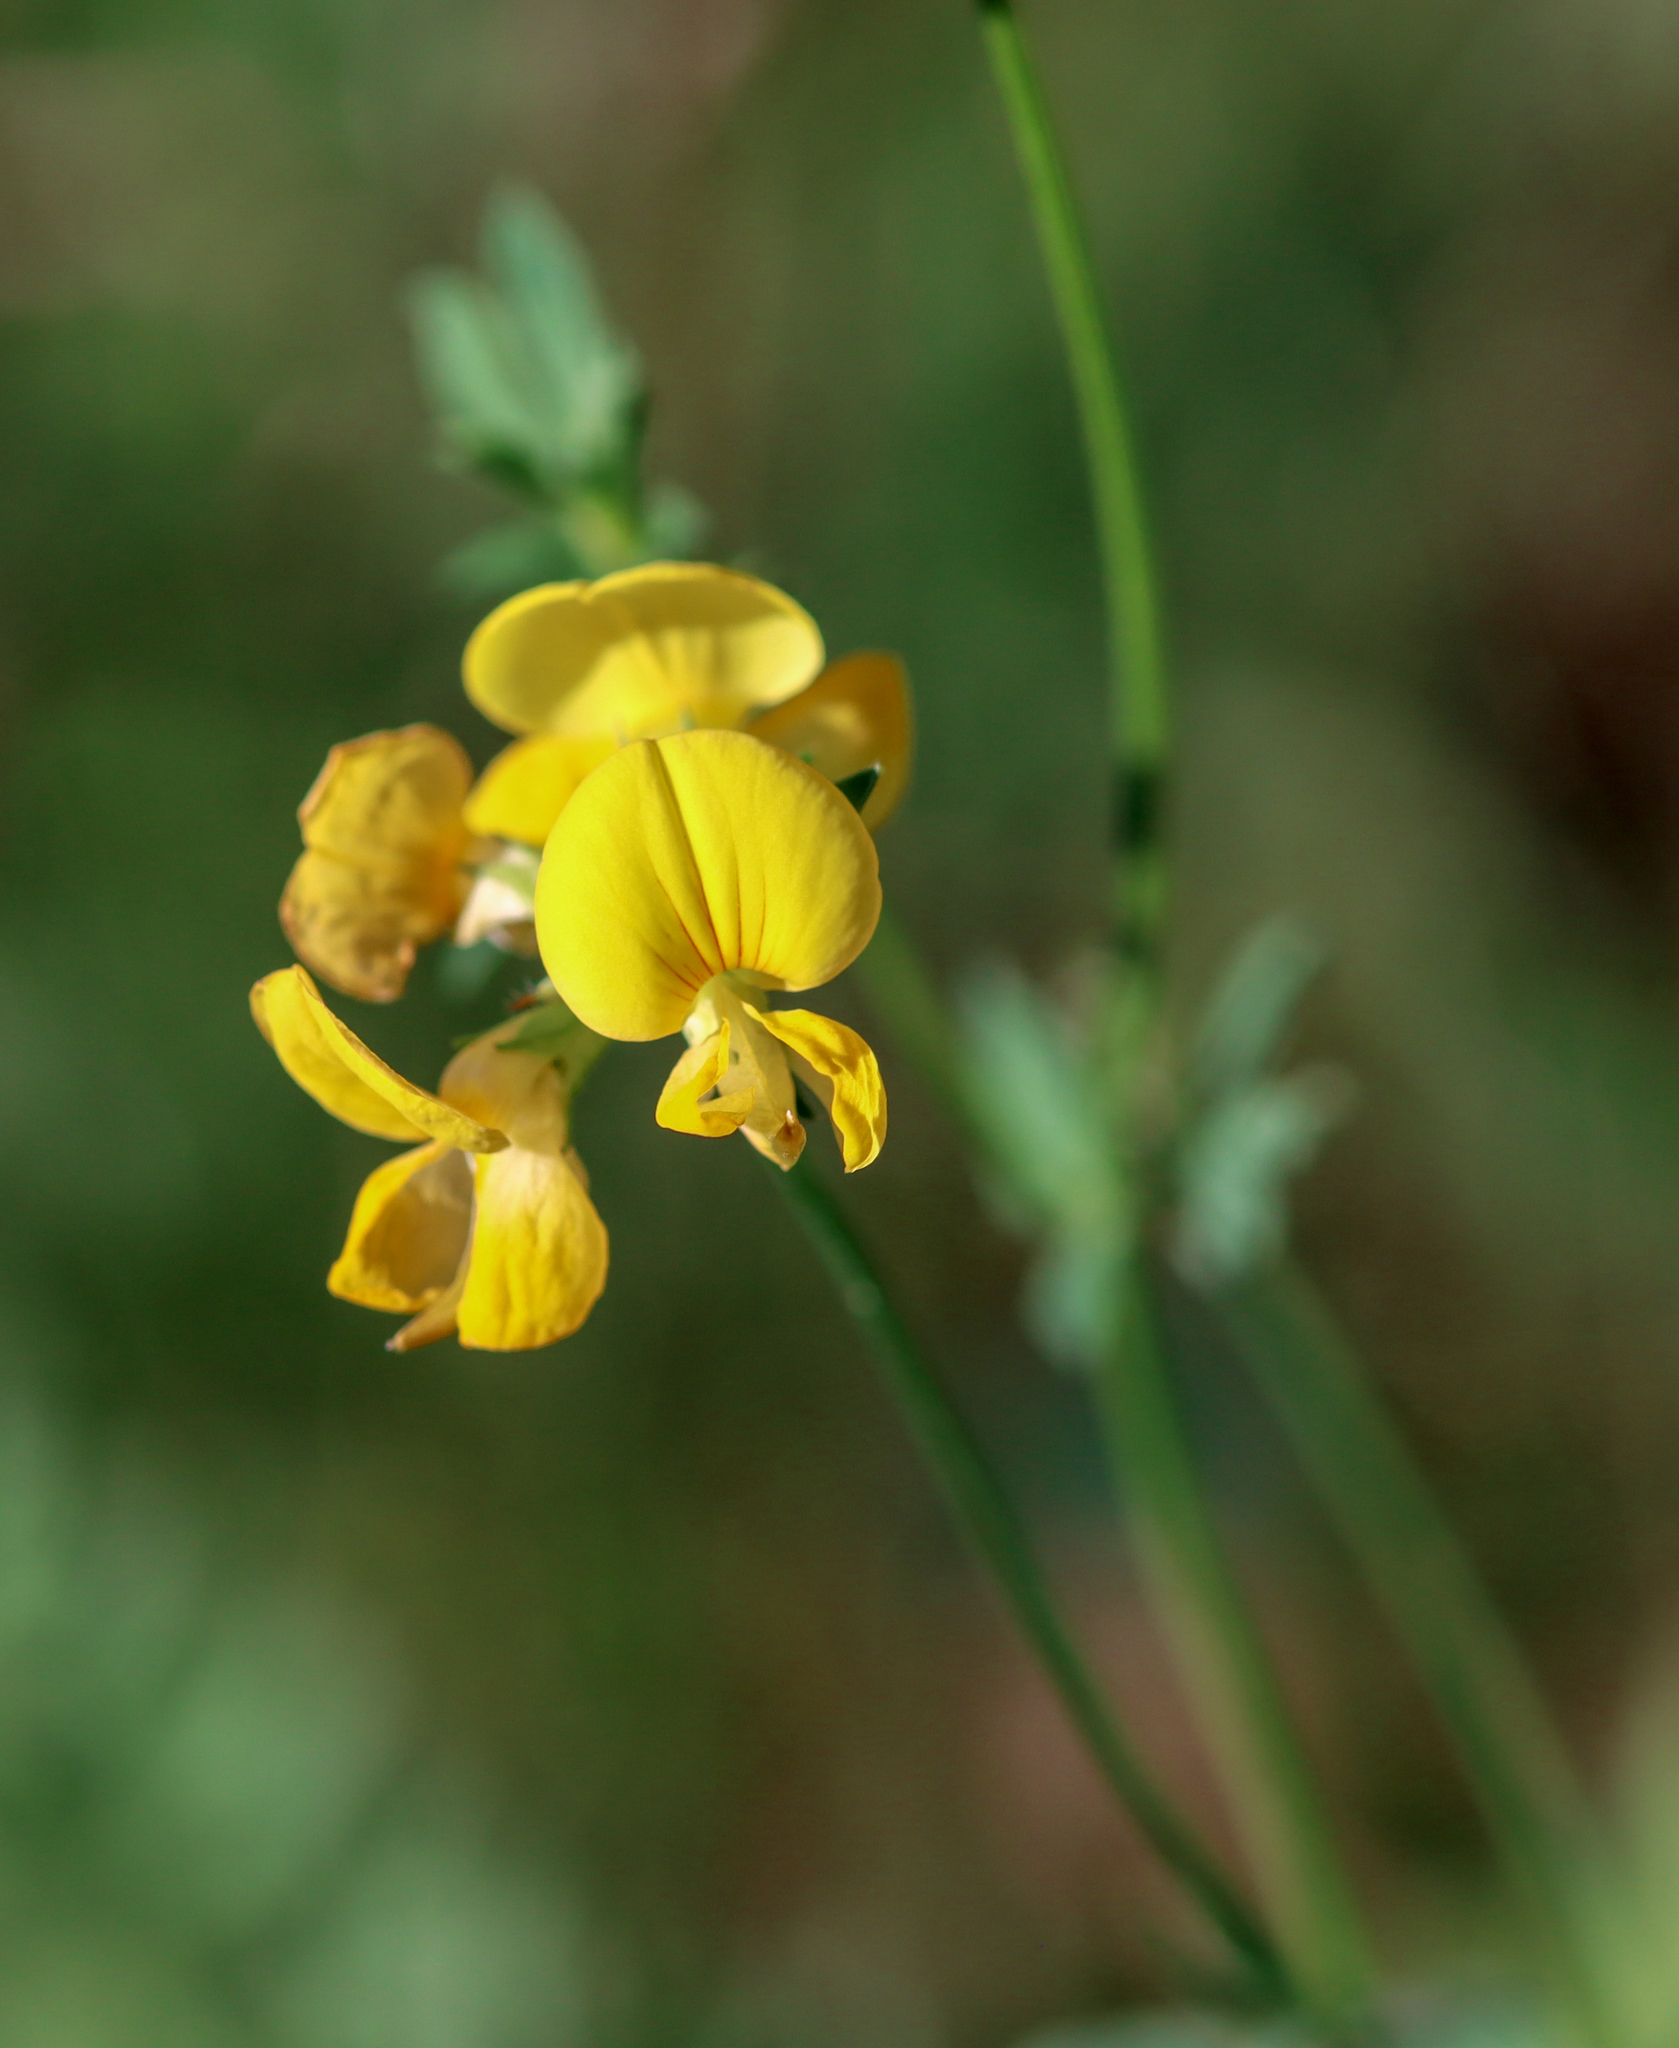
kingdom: Plantae
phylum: Tracheophyta
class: Magnoliopsida
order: Fabales
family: Fabaceae
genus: Lotus
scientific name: Lotus corniculatus
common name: Common bird's-foot-trefoil
